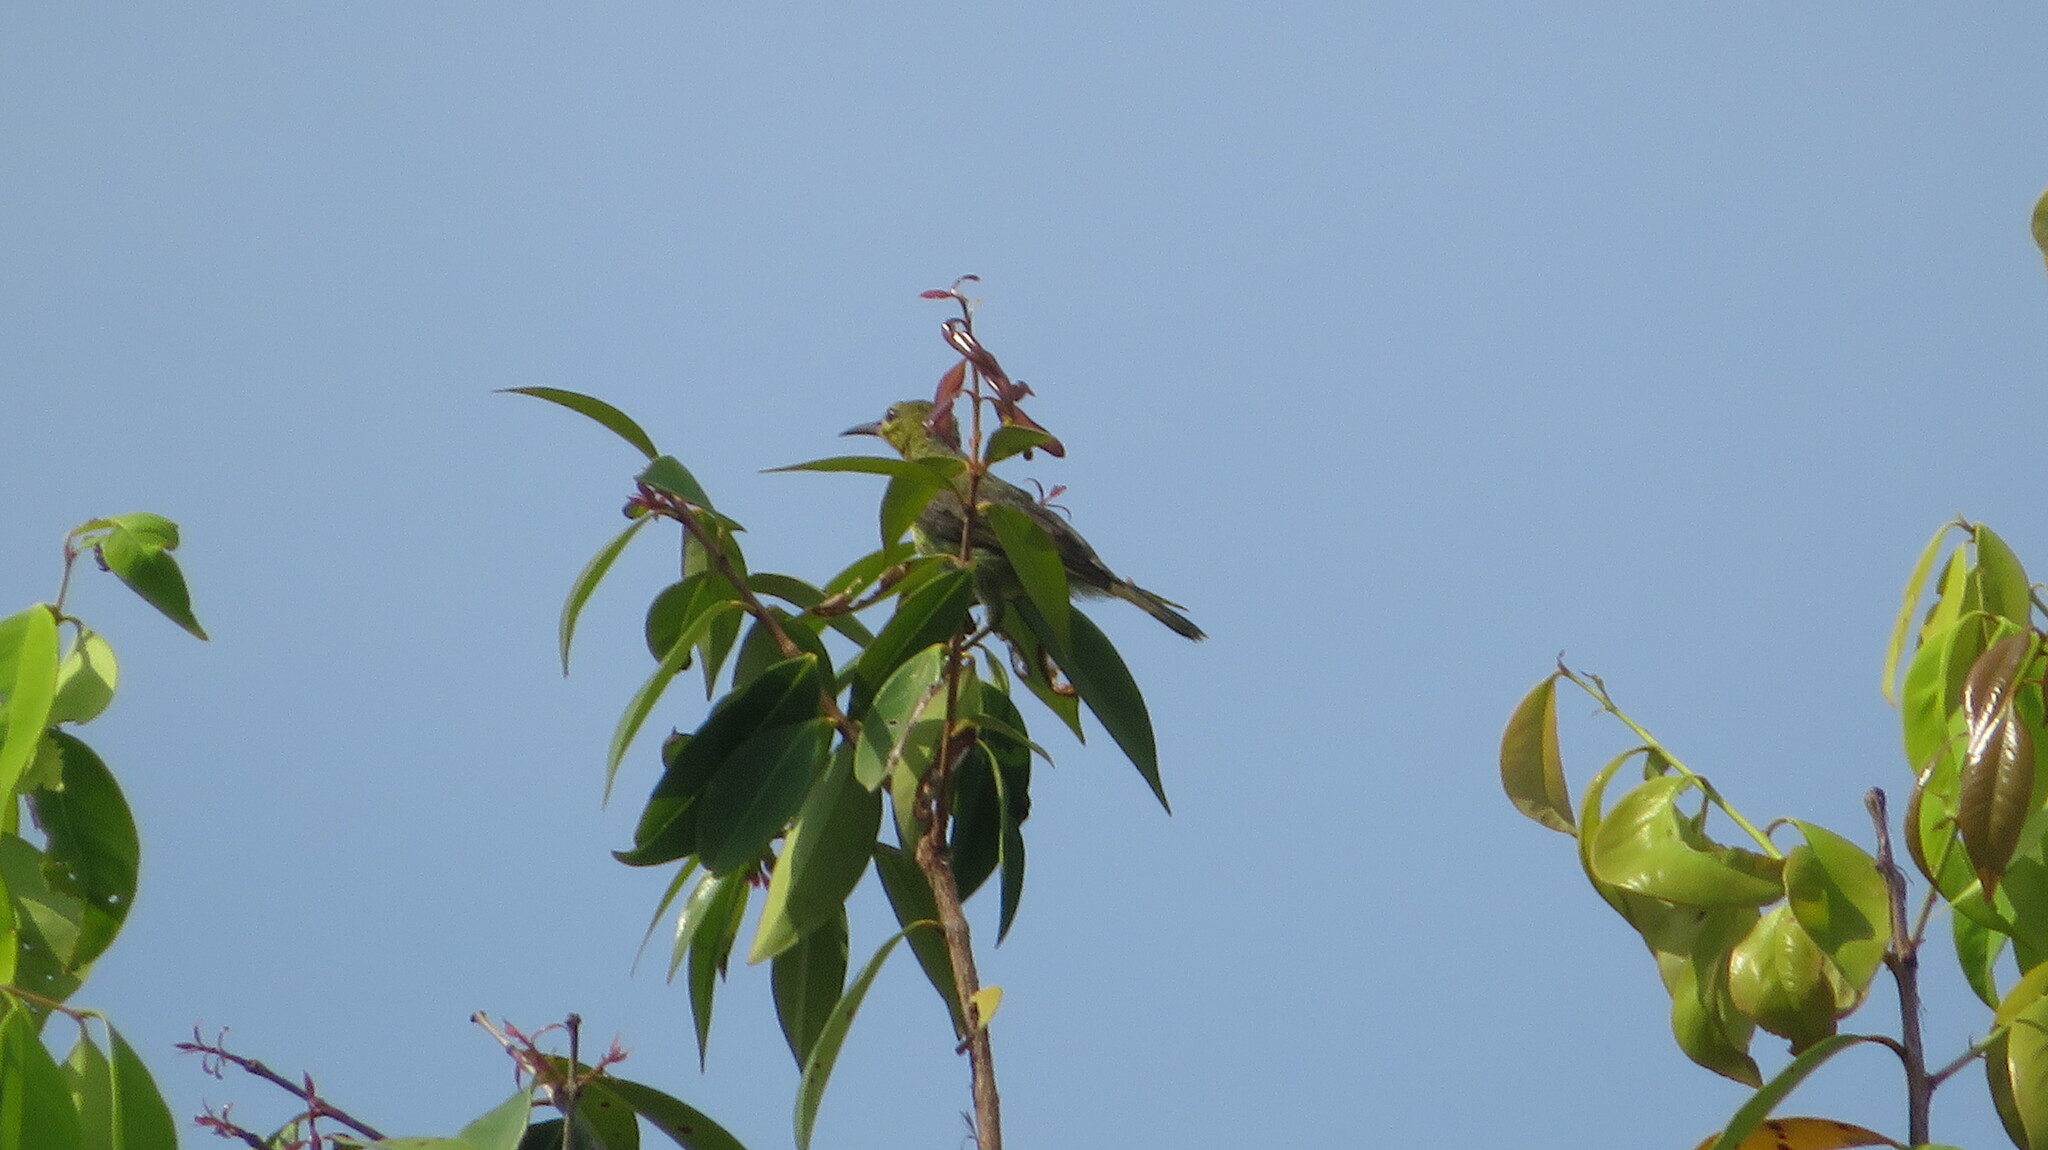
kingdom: Animalia
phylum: Chordata
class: Aves
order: Passeriformes
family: Nectariniidae
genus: Anthreptes
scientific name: Anthreptes malacensis
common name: Brown-throated sunbird
